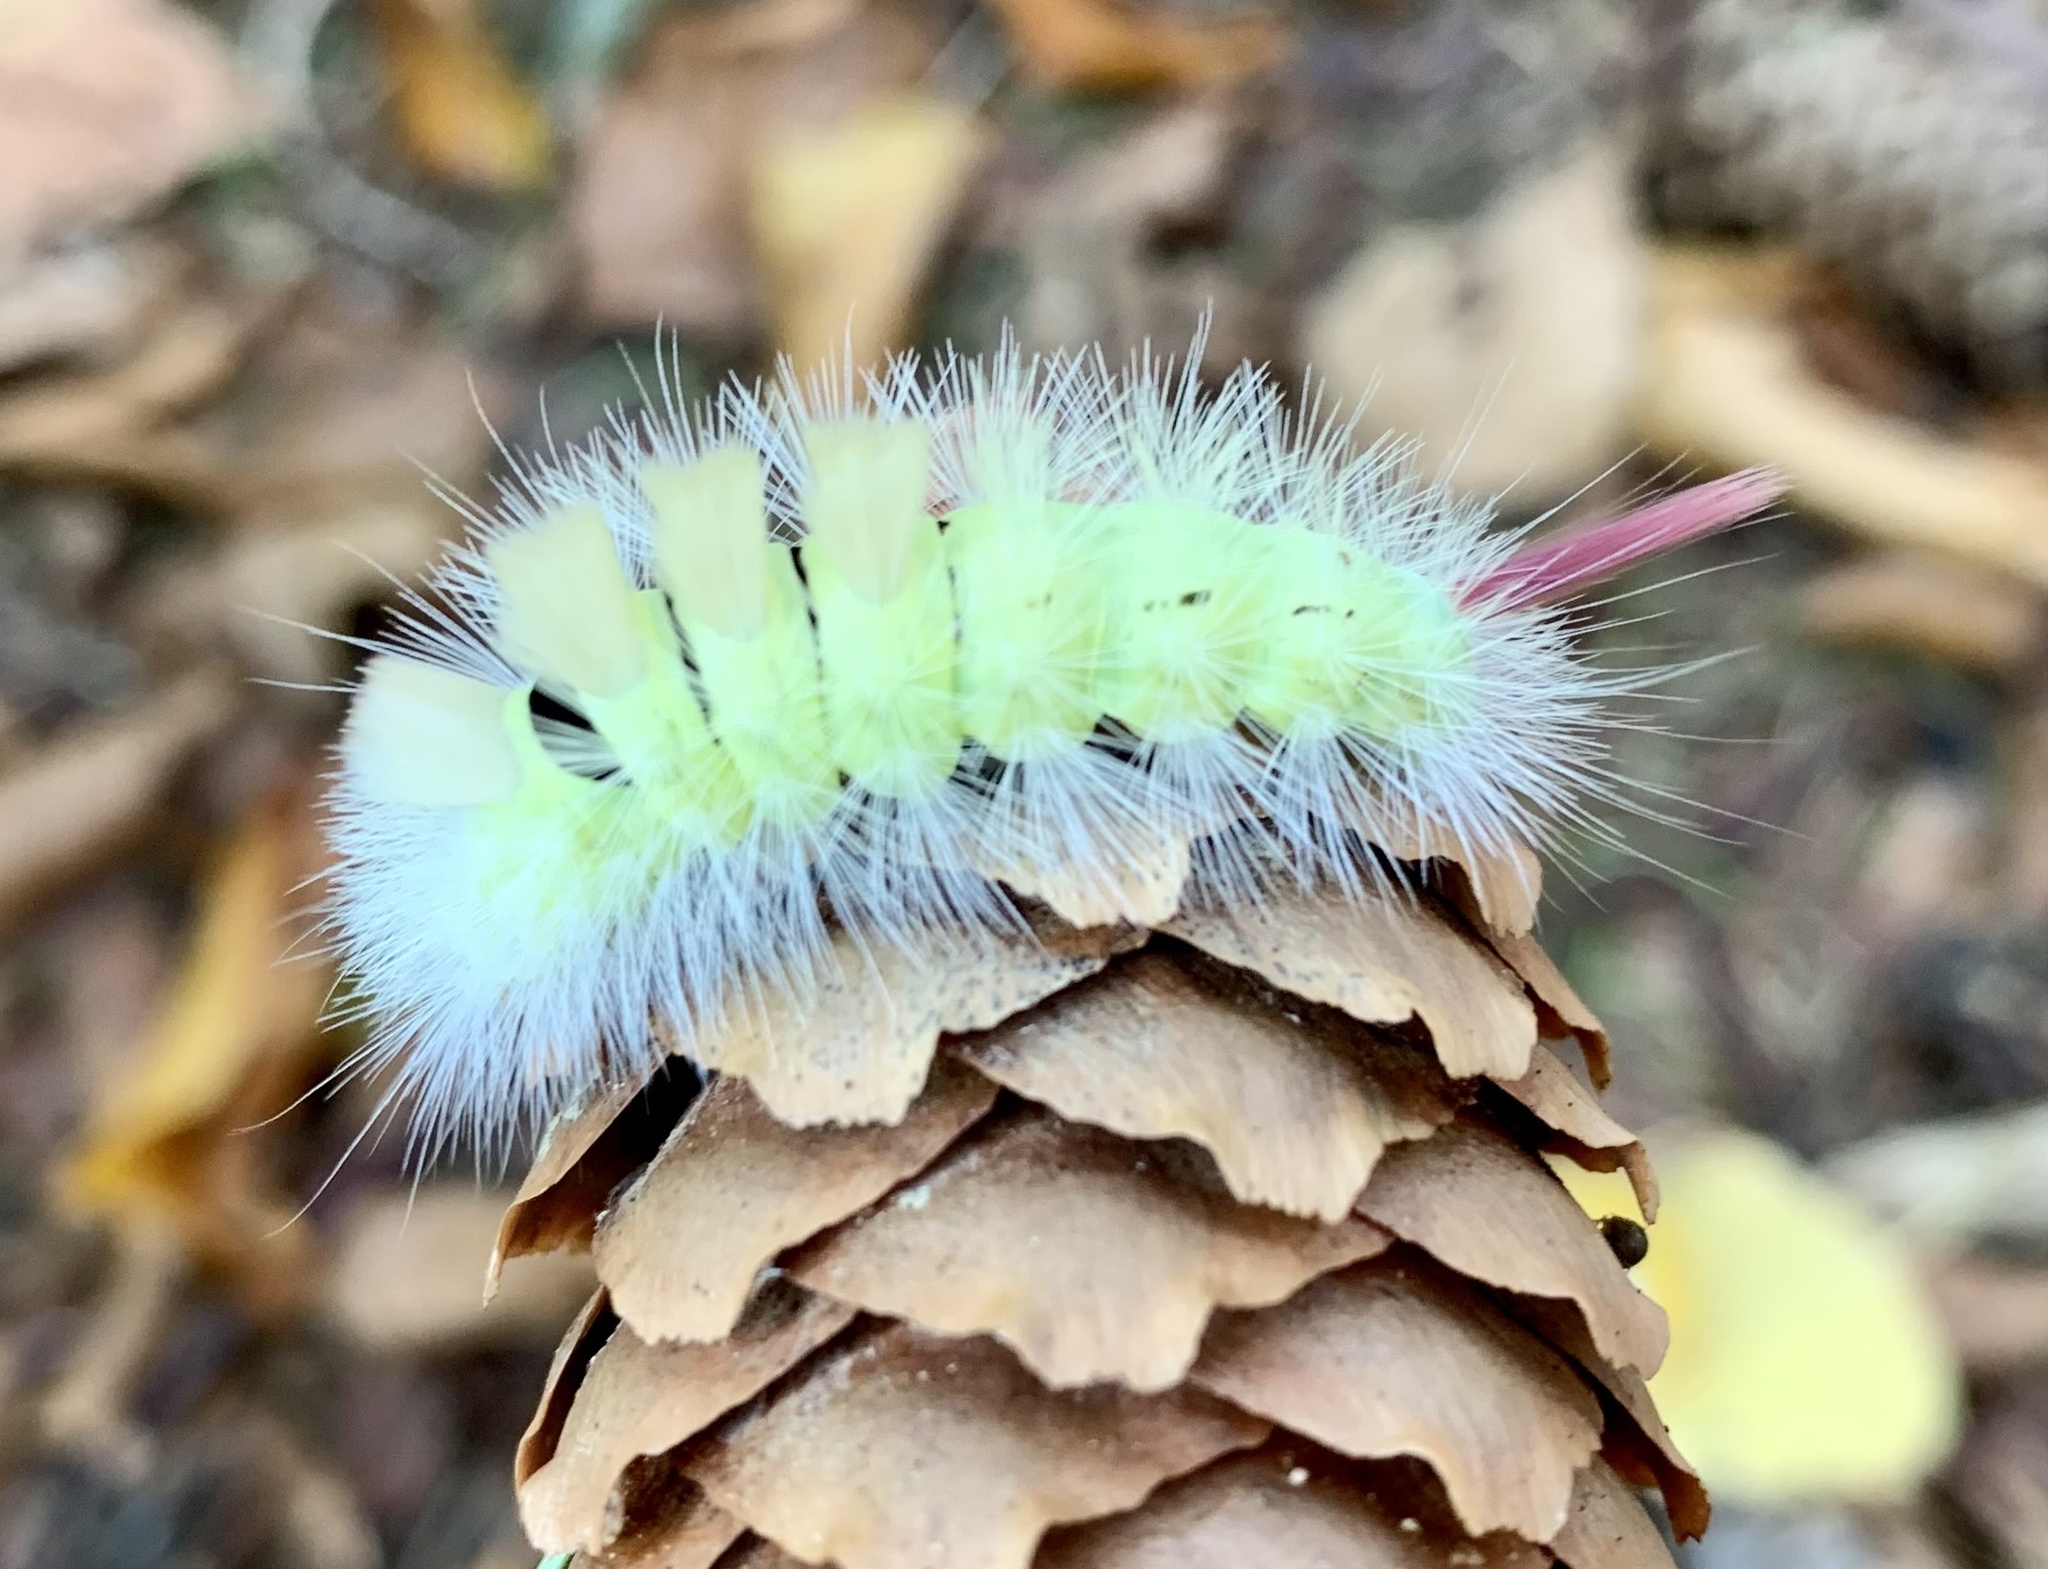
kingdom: Animalia
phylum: Arthropoda
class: Insecta
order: Lepidoptera
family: Erebidae
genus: Calliteara
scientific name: Calliteara pudibunda
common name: Pale tussock
